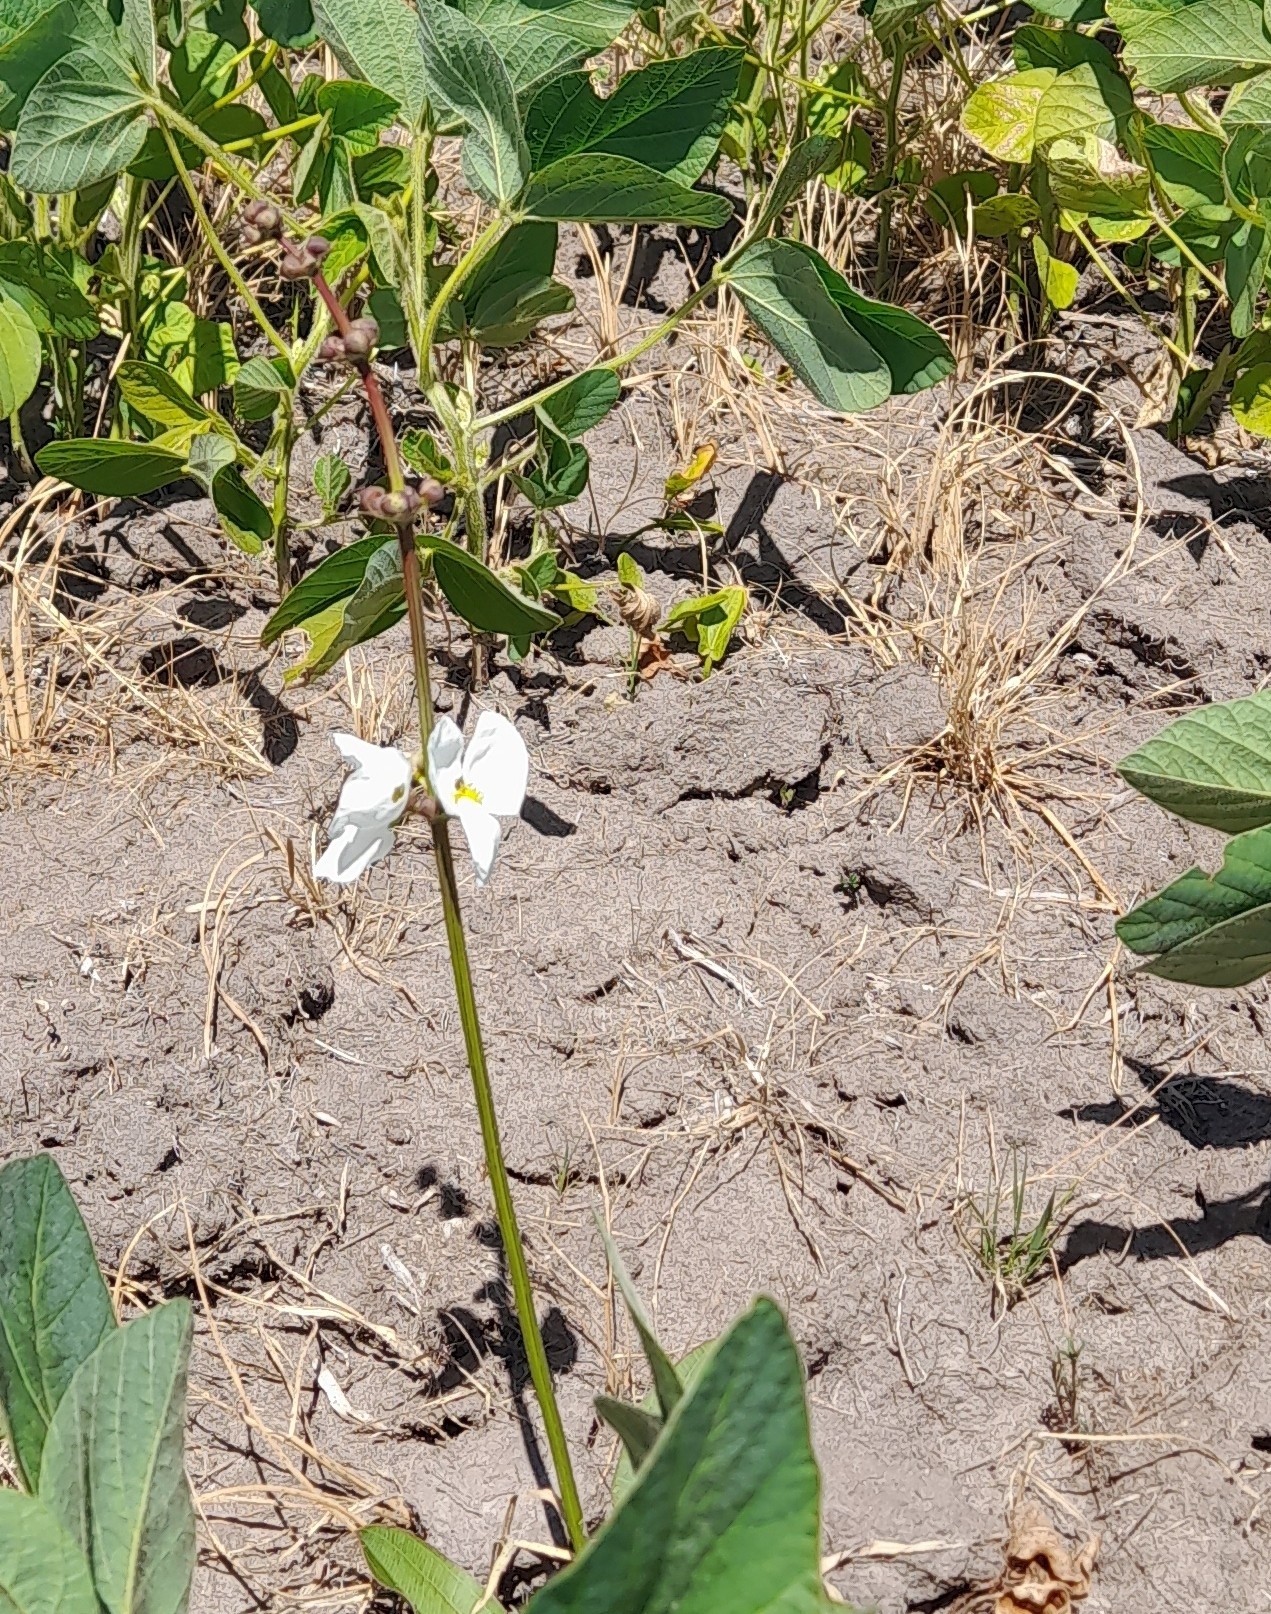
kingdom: Plantae
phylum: Tracheophyta
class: Liliopsida
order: Alismatales
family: Alismataceae
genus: Aquarius
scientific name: Aquarius longiscapus
